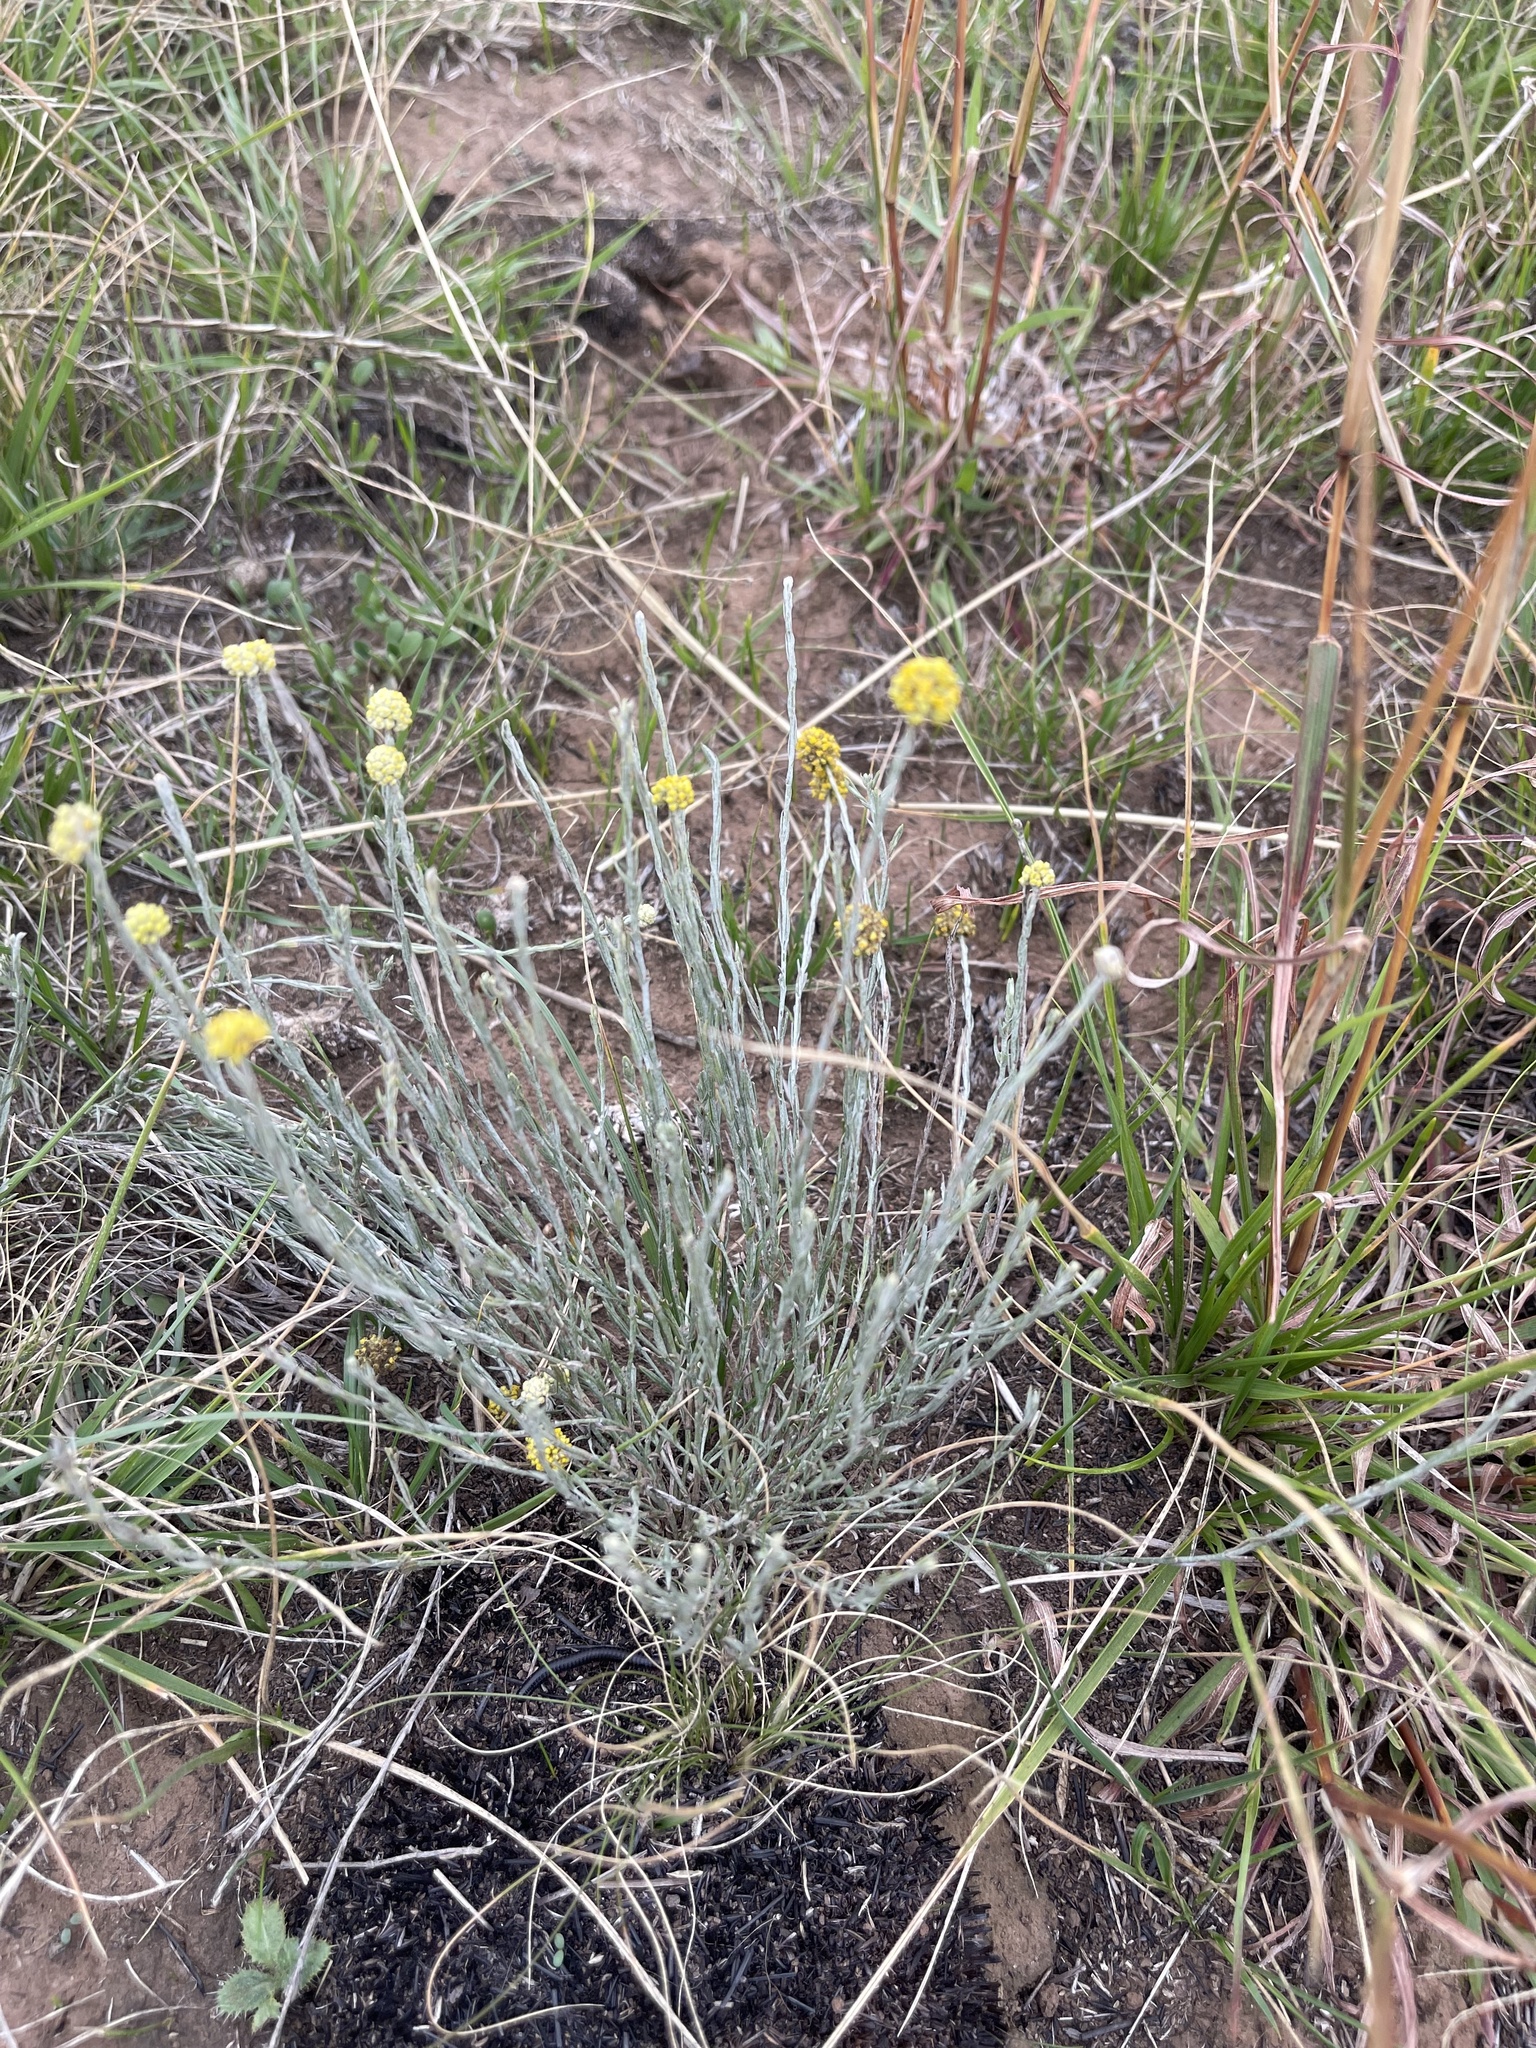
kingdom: Plantae
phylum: Tracheophyta
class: Magnoliopsida
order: Asterales
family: Asteraceae
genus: Calocephalus
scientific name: Calocephalus citreus
